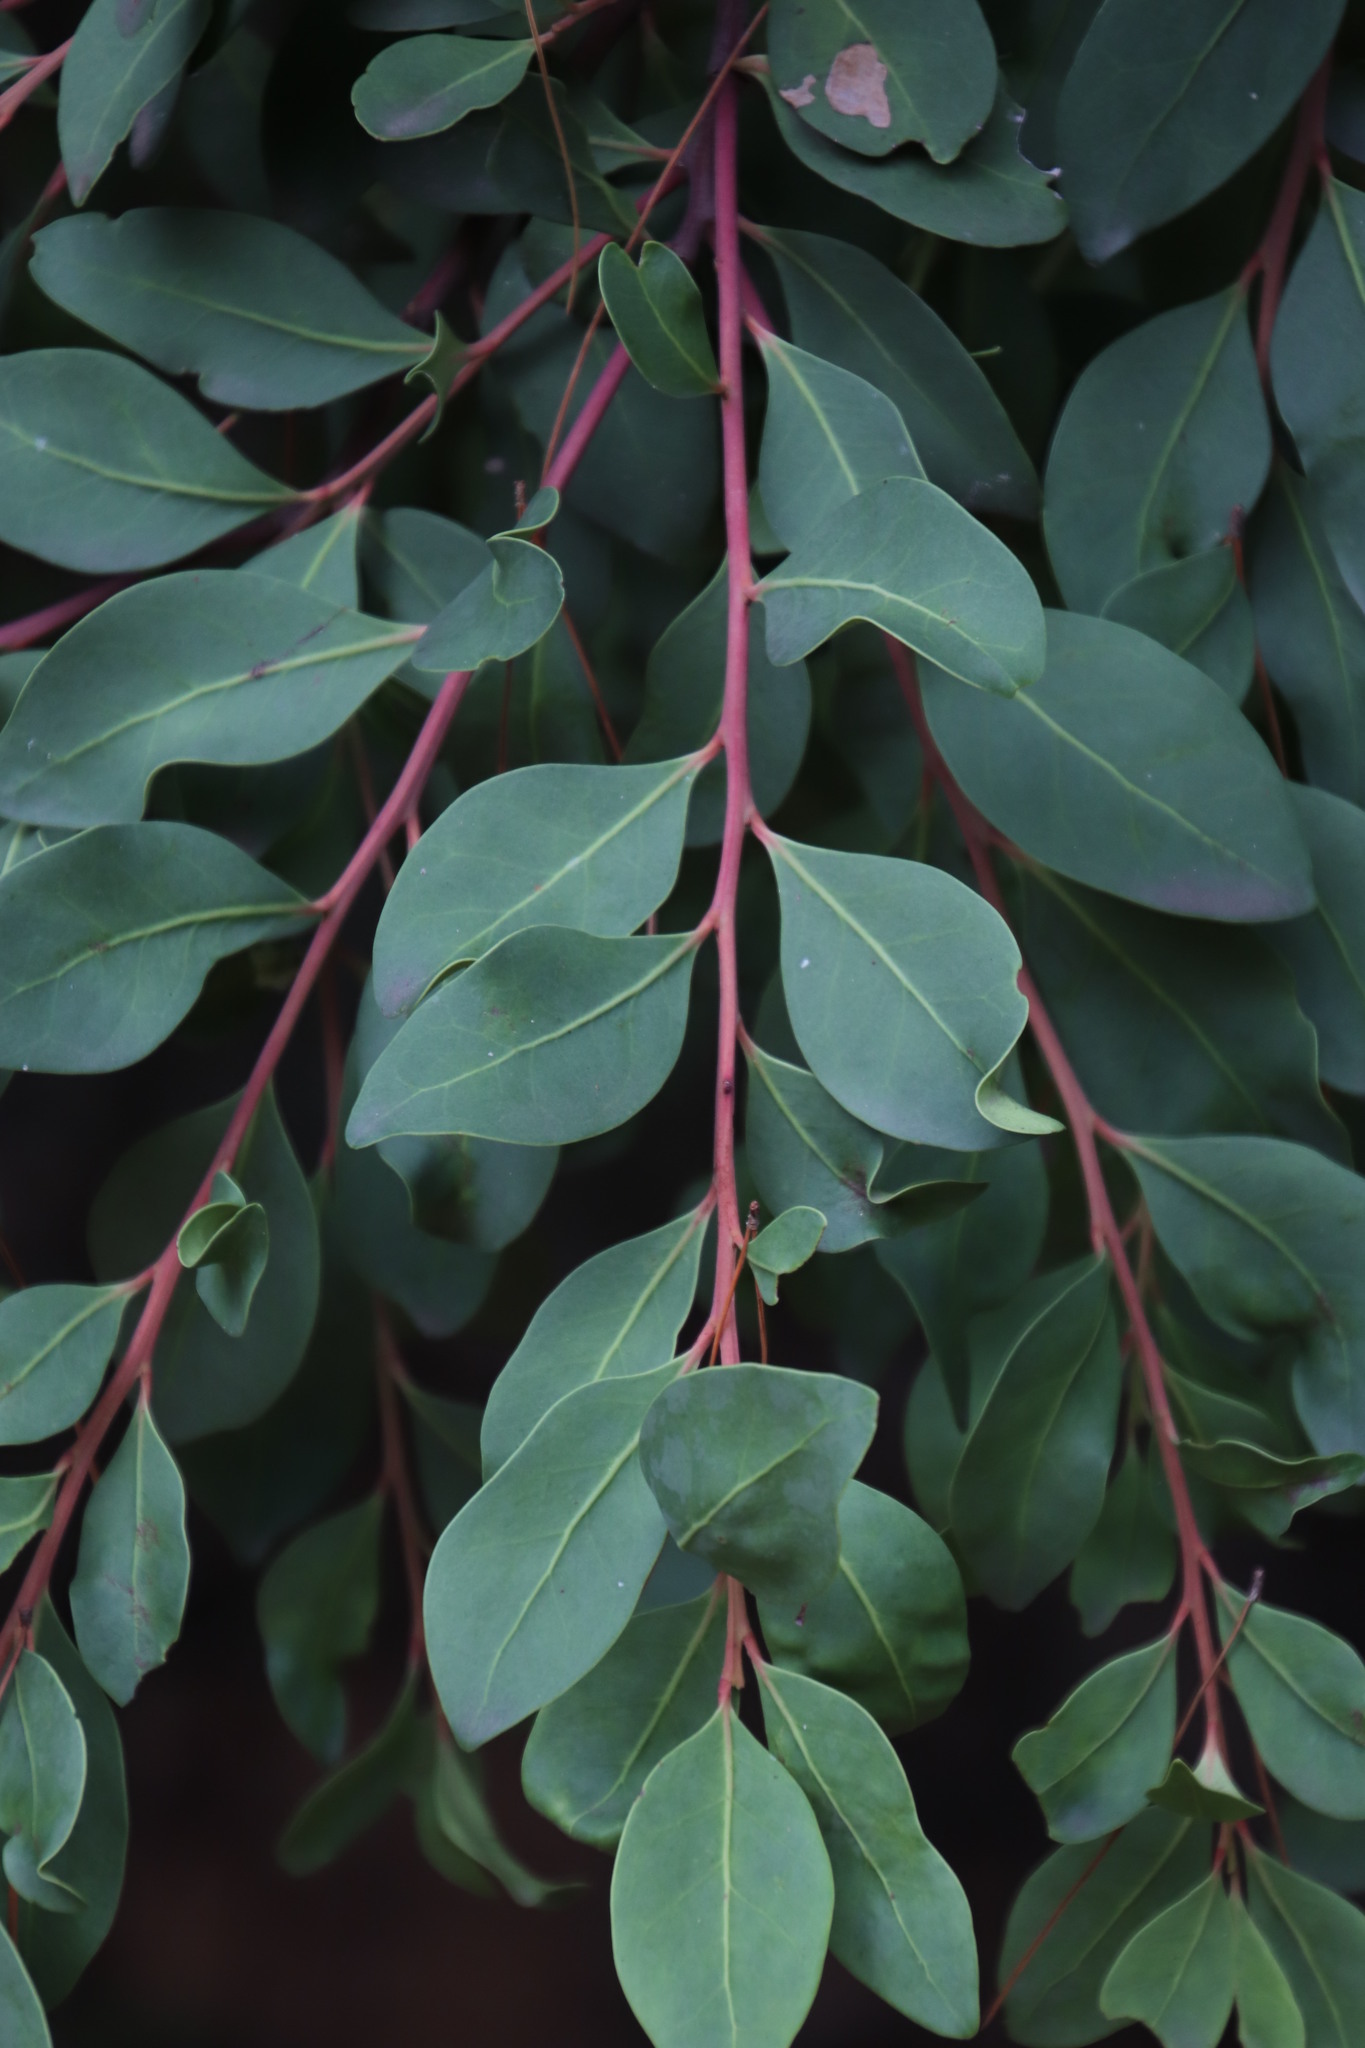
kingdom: Plantae
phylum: Tracheophyta
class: Magnoliopsida
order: Celastrales
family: Celastraceae
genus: Pterocelastrus
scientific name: Pterocelastrus tricuspidatus
